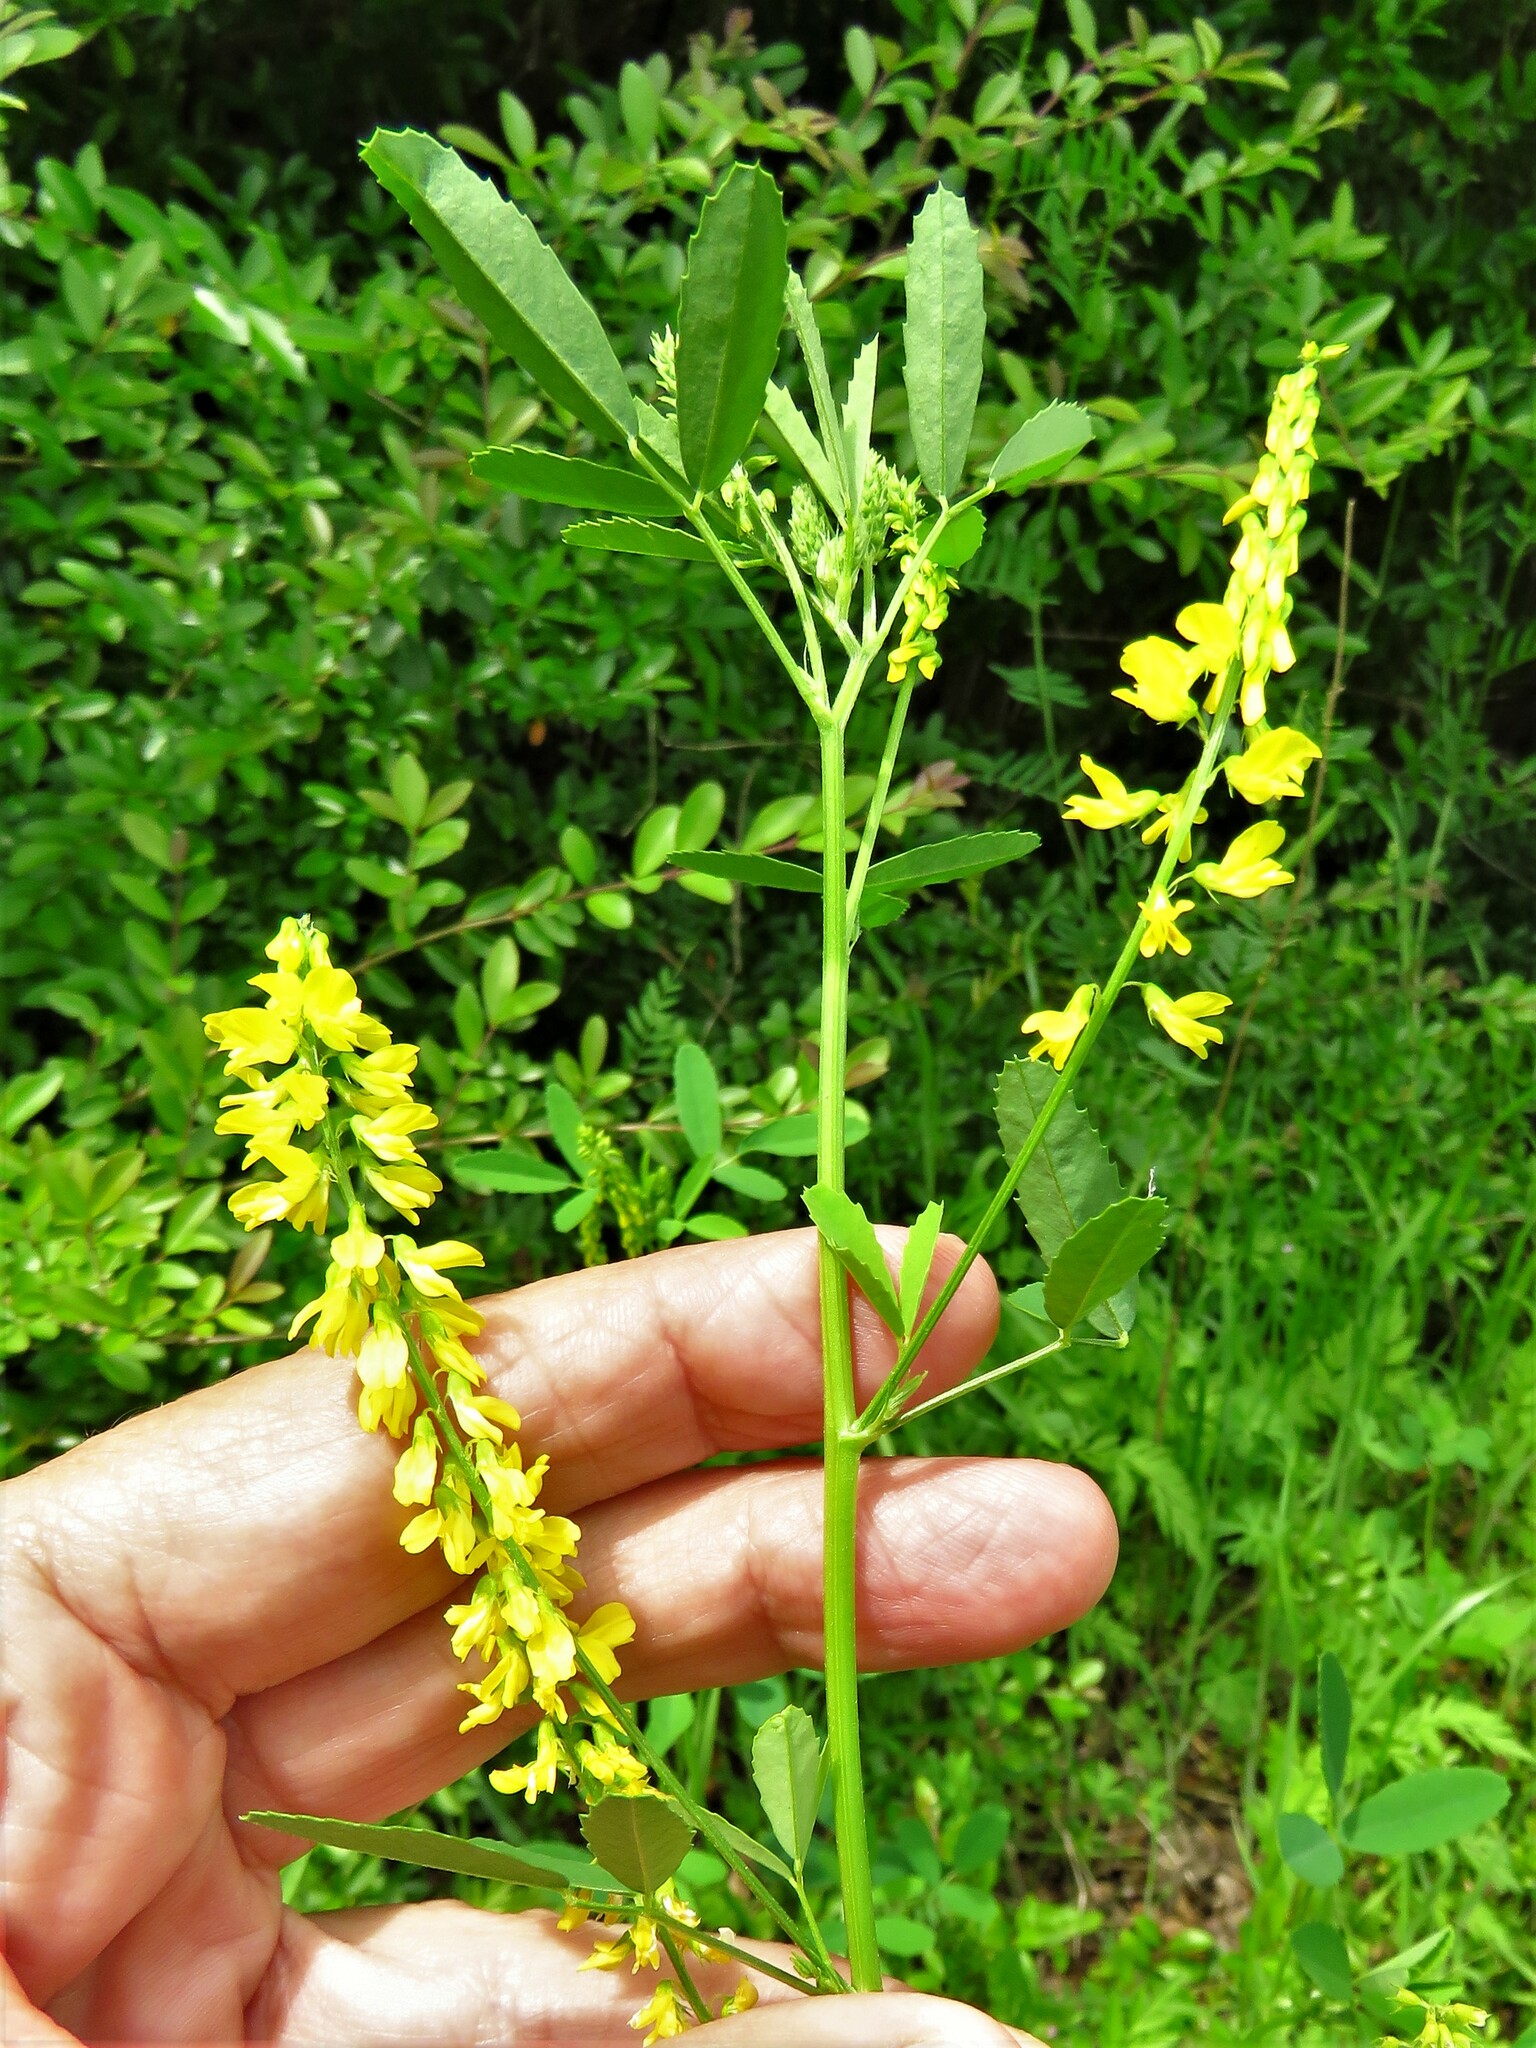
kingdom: Plantae
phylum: Tracheophyta
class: Magnoliopsida
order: Fabales
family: Fabaceae
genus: Melilotus
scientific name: Melilotus indicus
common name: Small melilot
